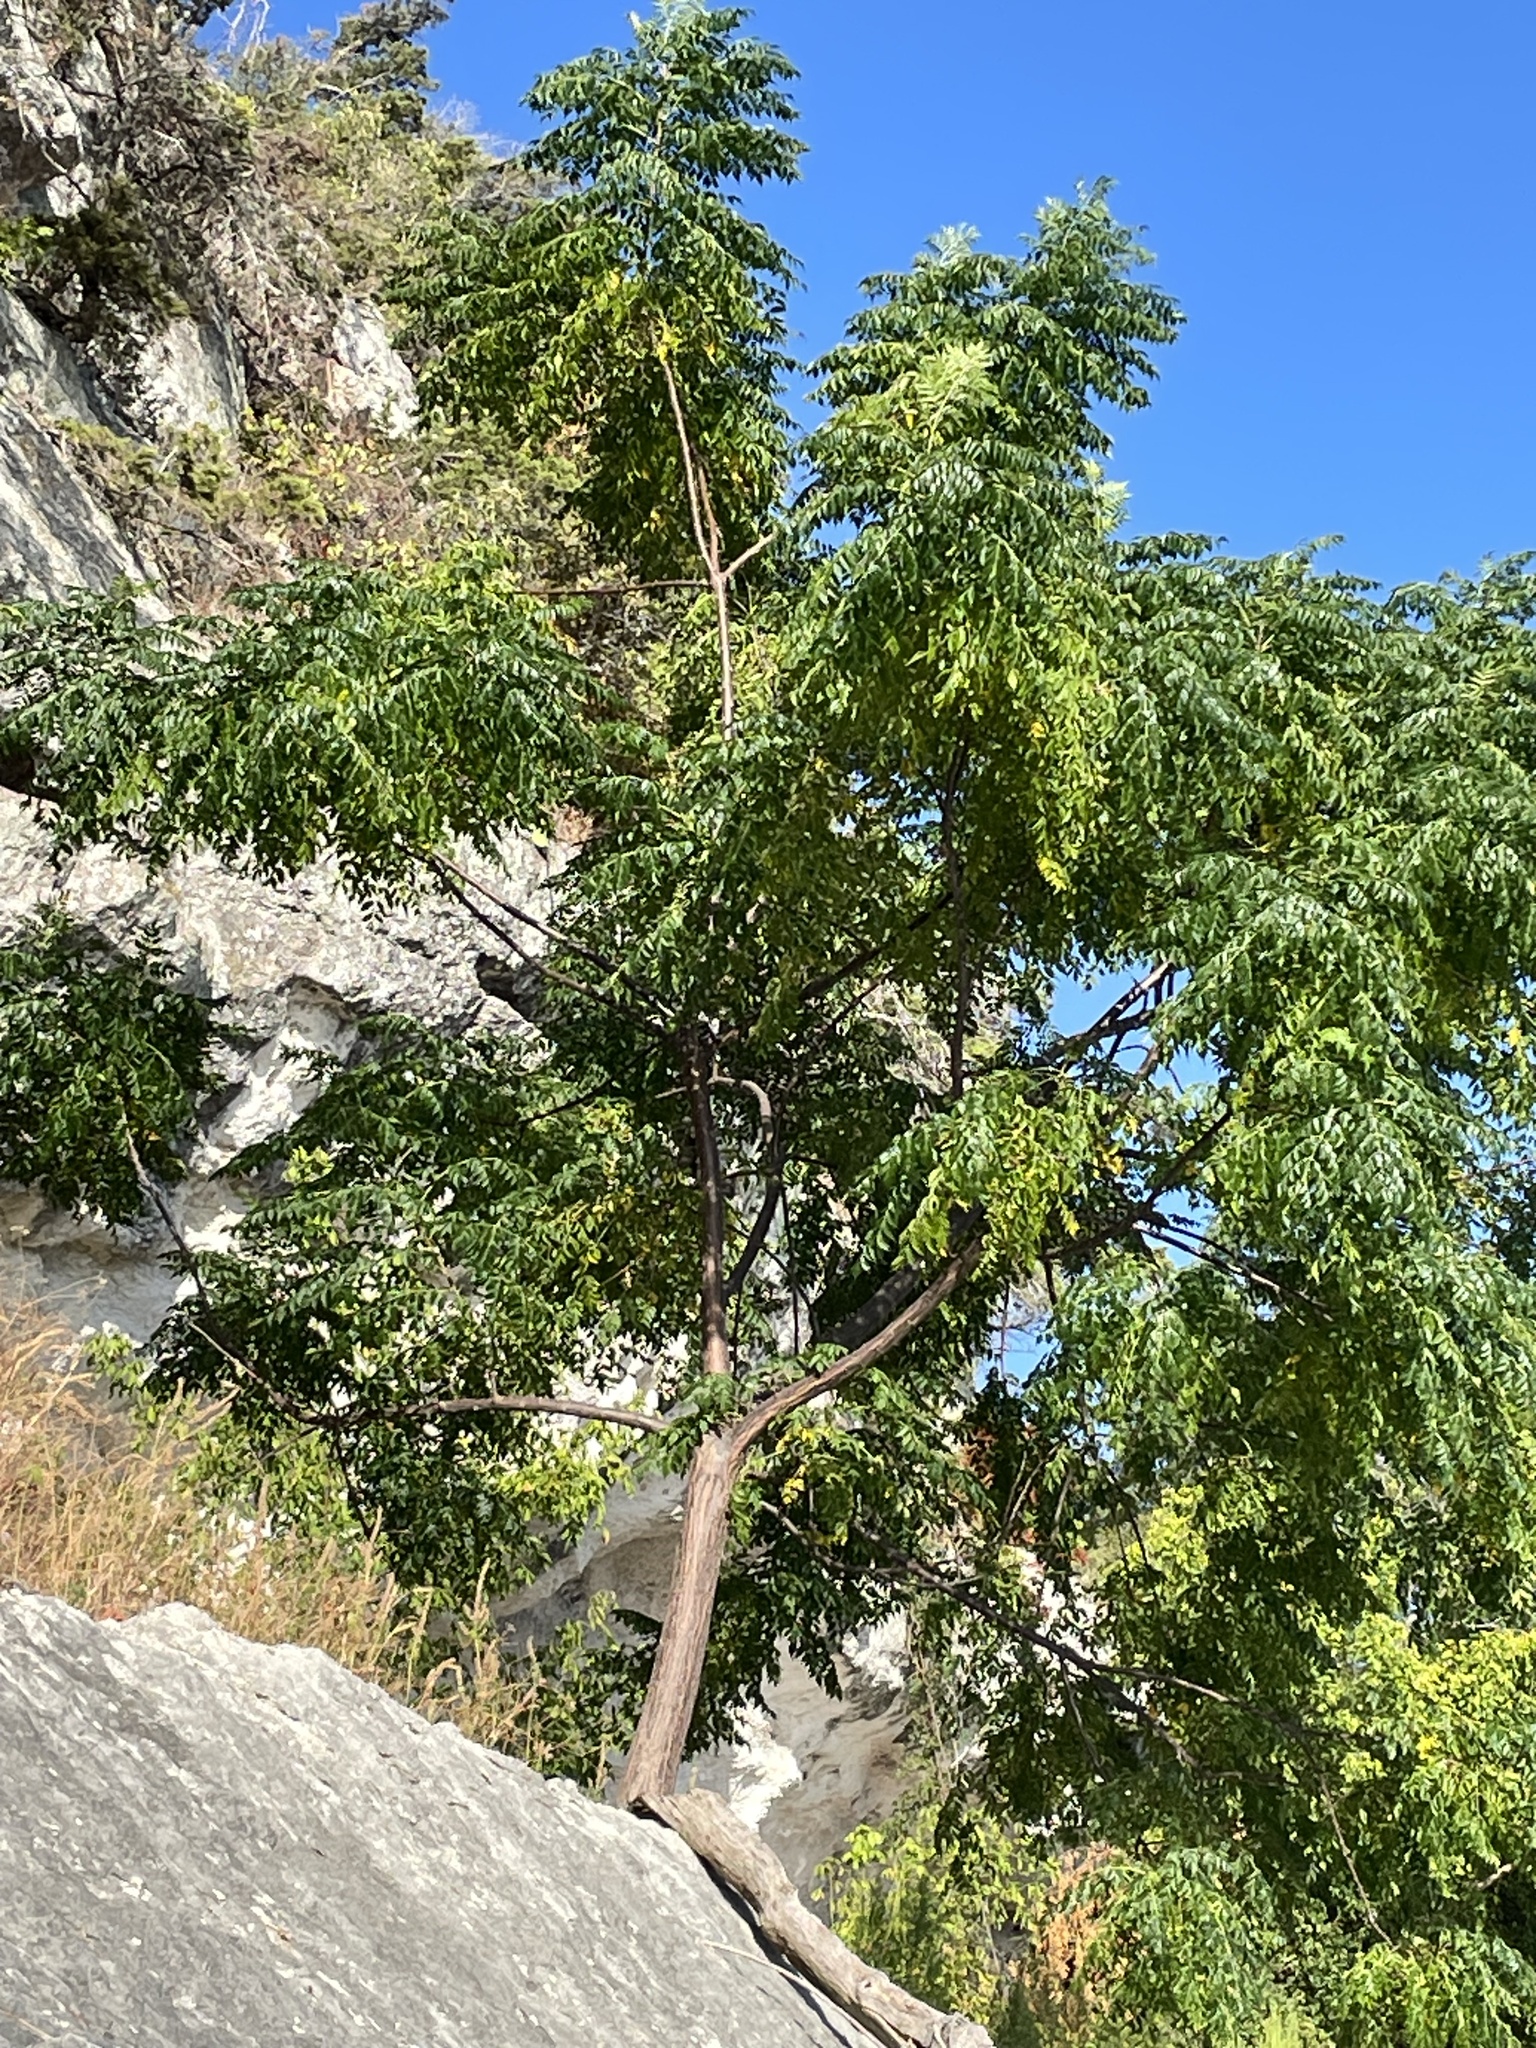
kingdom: Plantae
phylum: Tracheophyta
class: Magnoliopsida
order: Sapindales
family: Meliaceae
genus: Melia
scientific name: Melia azedarach
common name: Chinaberrytree
